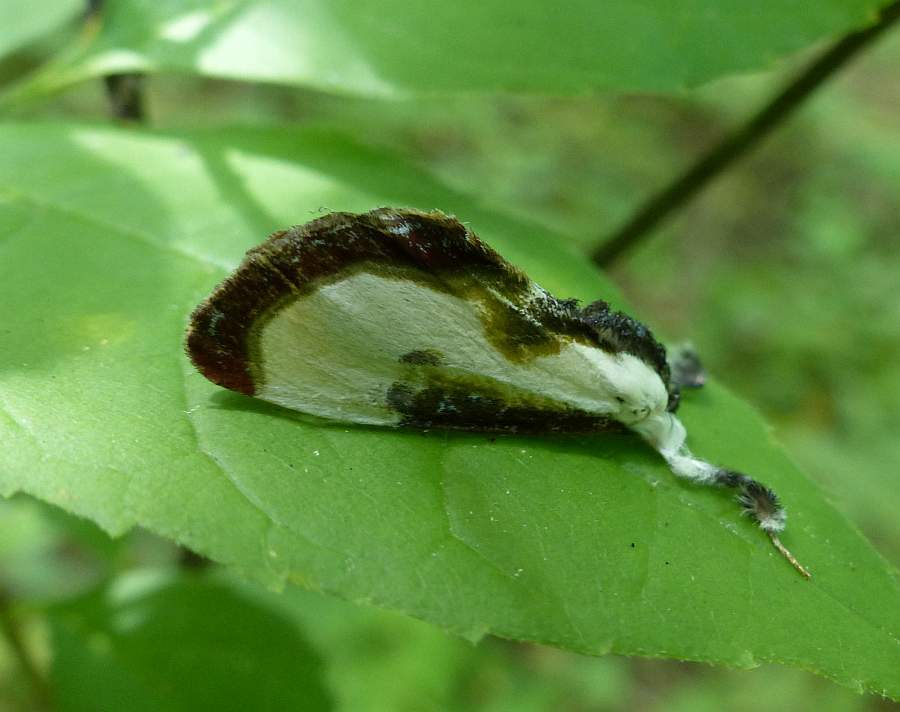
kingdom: Animalia
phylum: Arthropoda
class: Insecta
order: Lepidoptera
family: Noctuidae
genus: Eudryas
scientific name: Eudryas grata
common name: Beautiful wood-nymph
